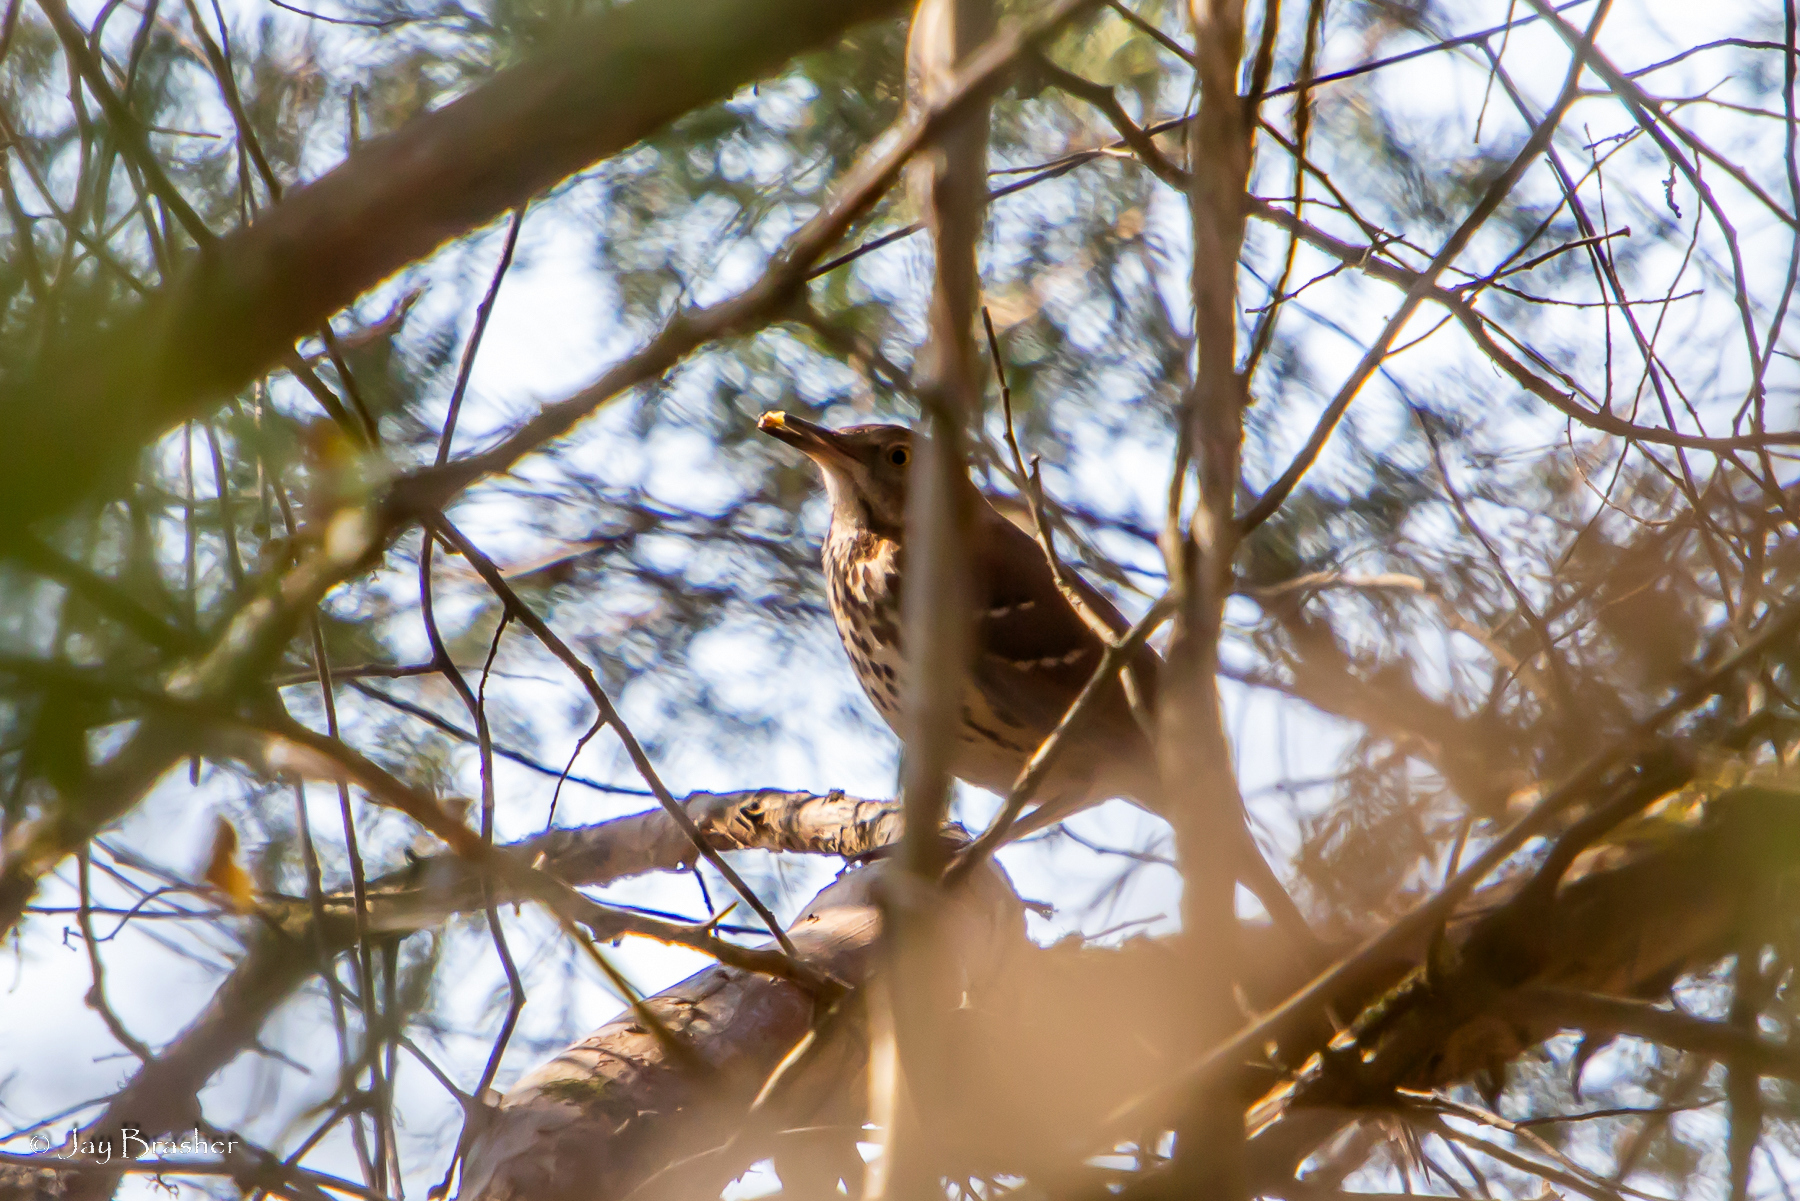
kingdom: Animalia
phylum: Chordata
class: Aves
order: Passeriformes
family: Mimidae
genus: Toxostoma
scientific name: Toxostoma rufum
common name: Brown thrasher
